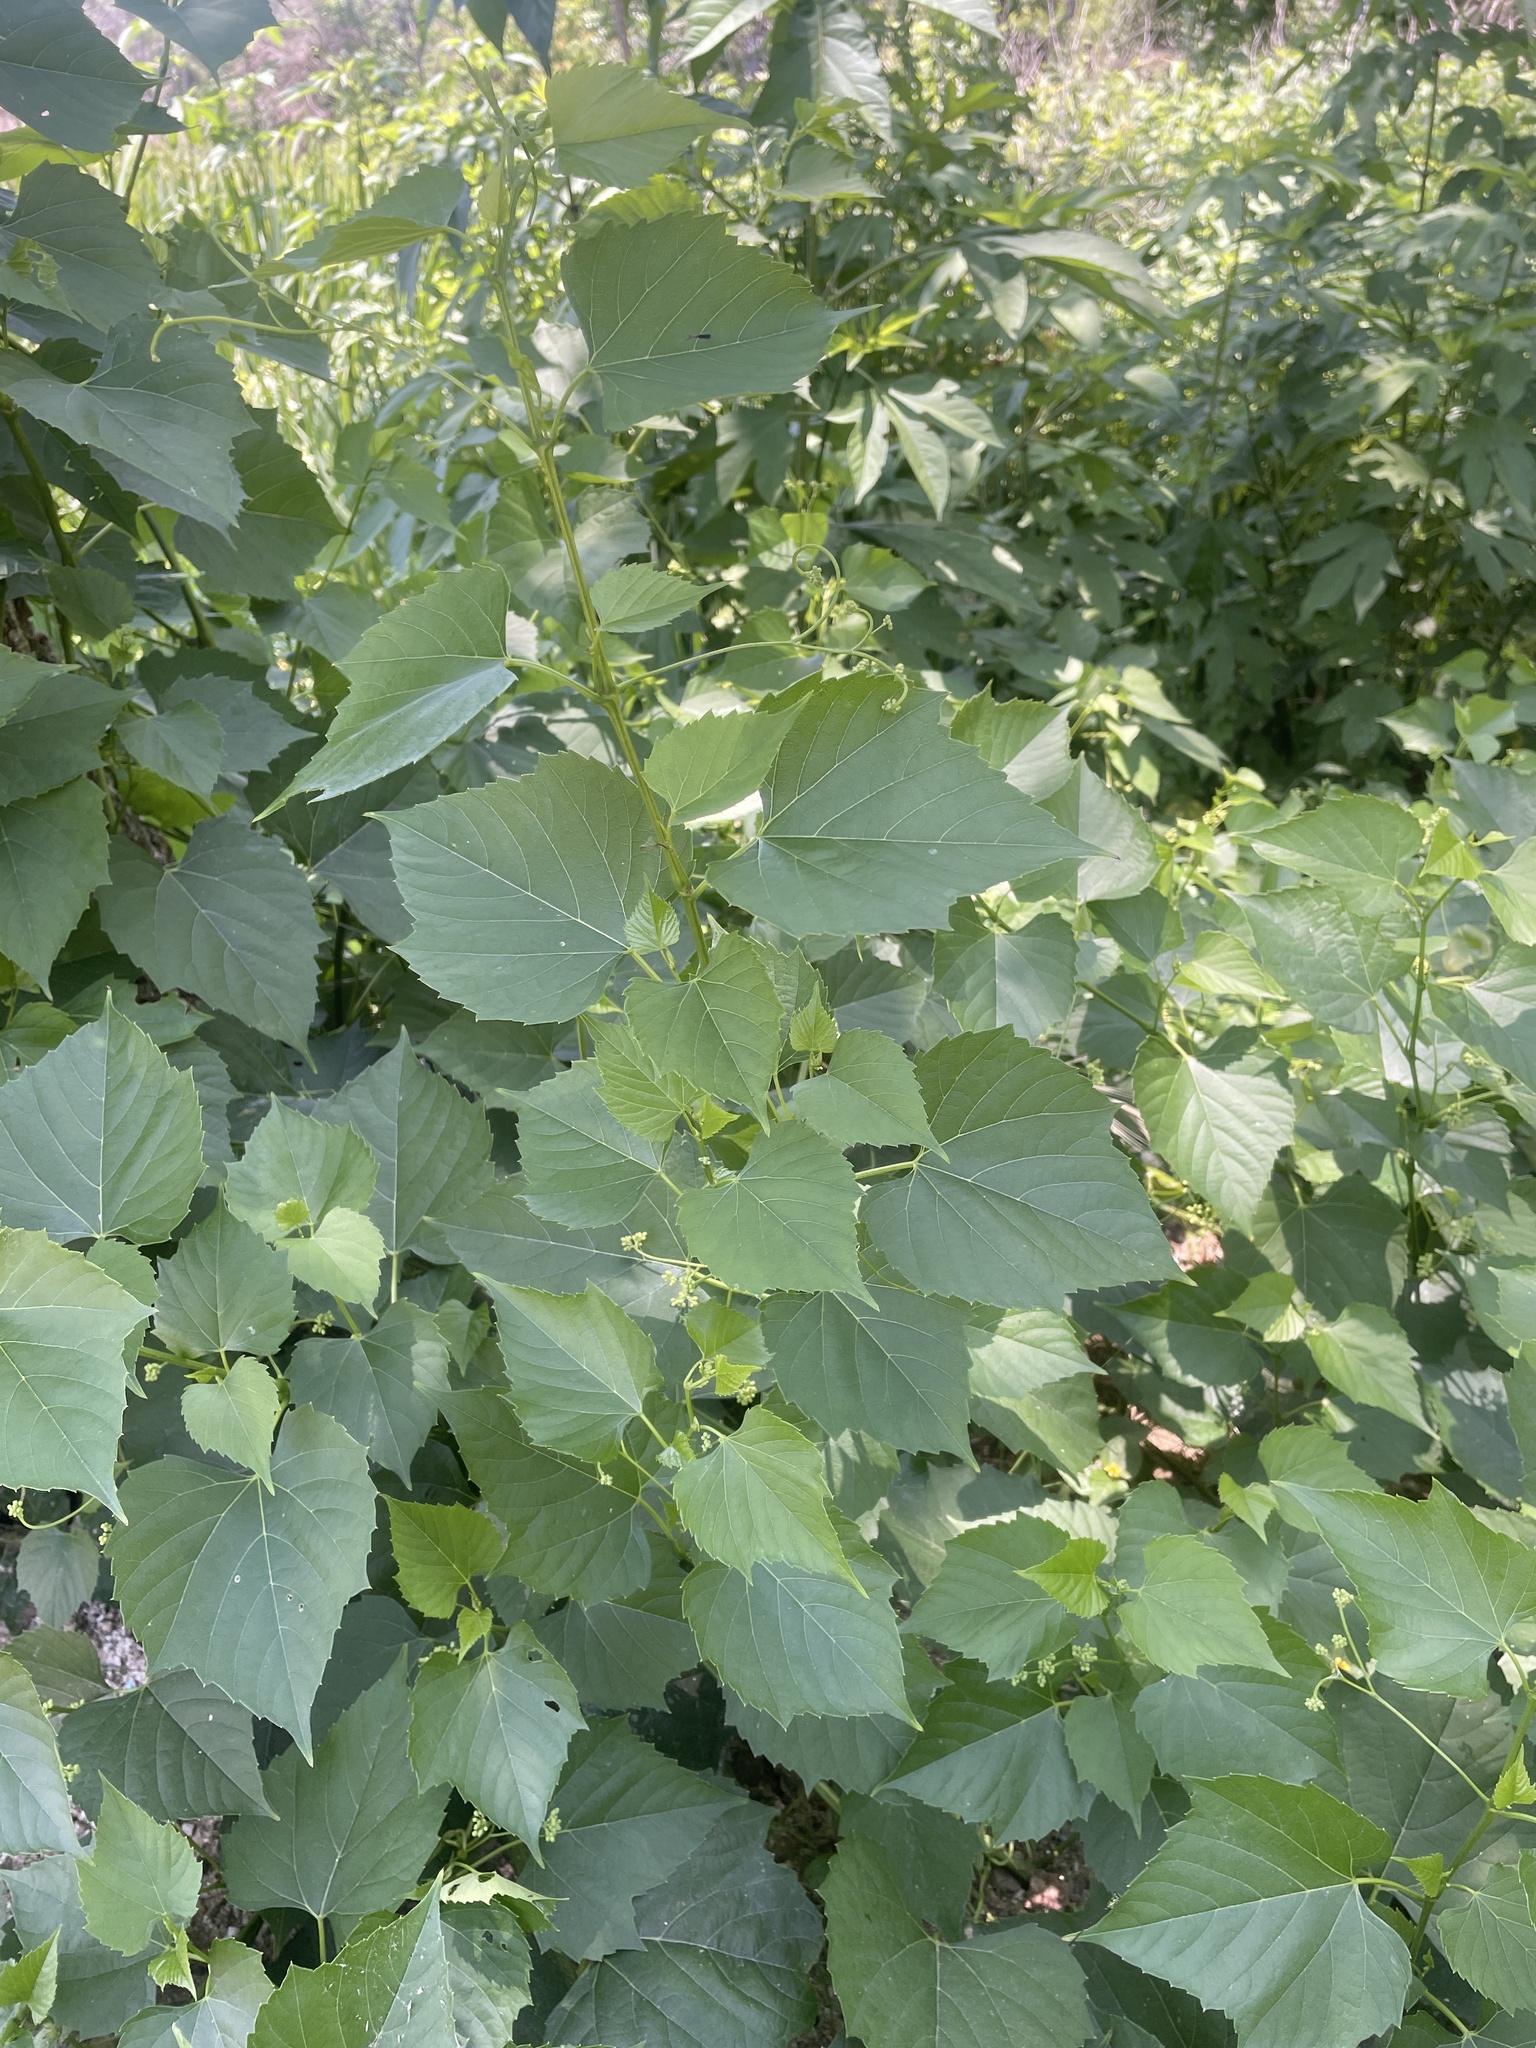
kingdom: Plantae
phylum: Tracheophyta
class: Magnoliopsida
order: Vitales
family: Vitaceae
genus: Ampelopsis
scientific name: Ampelopsis cordata
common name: Heart-leaf ampelopsis
